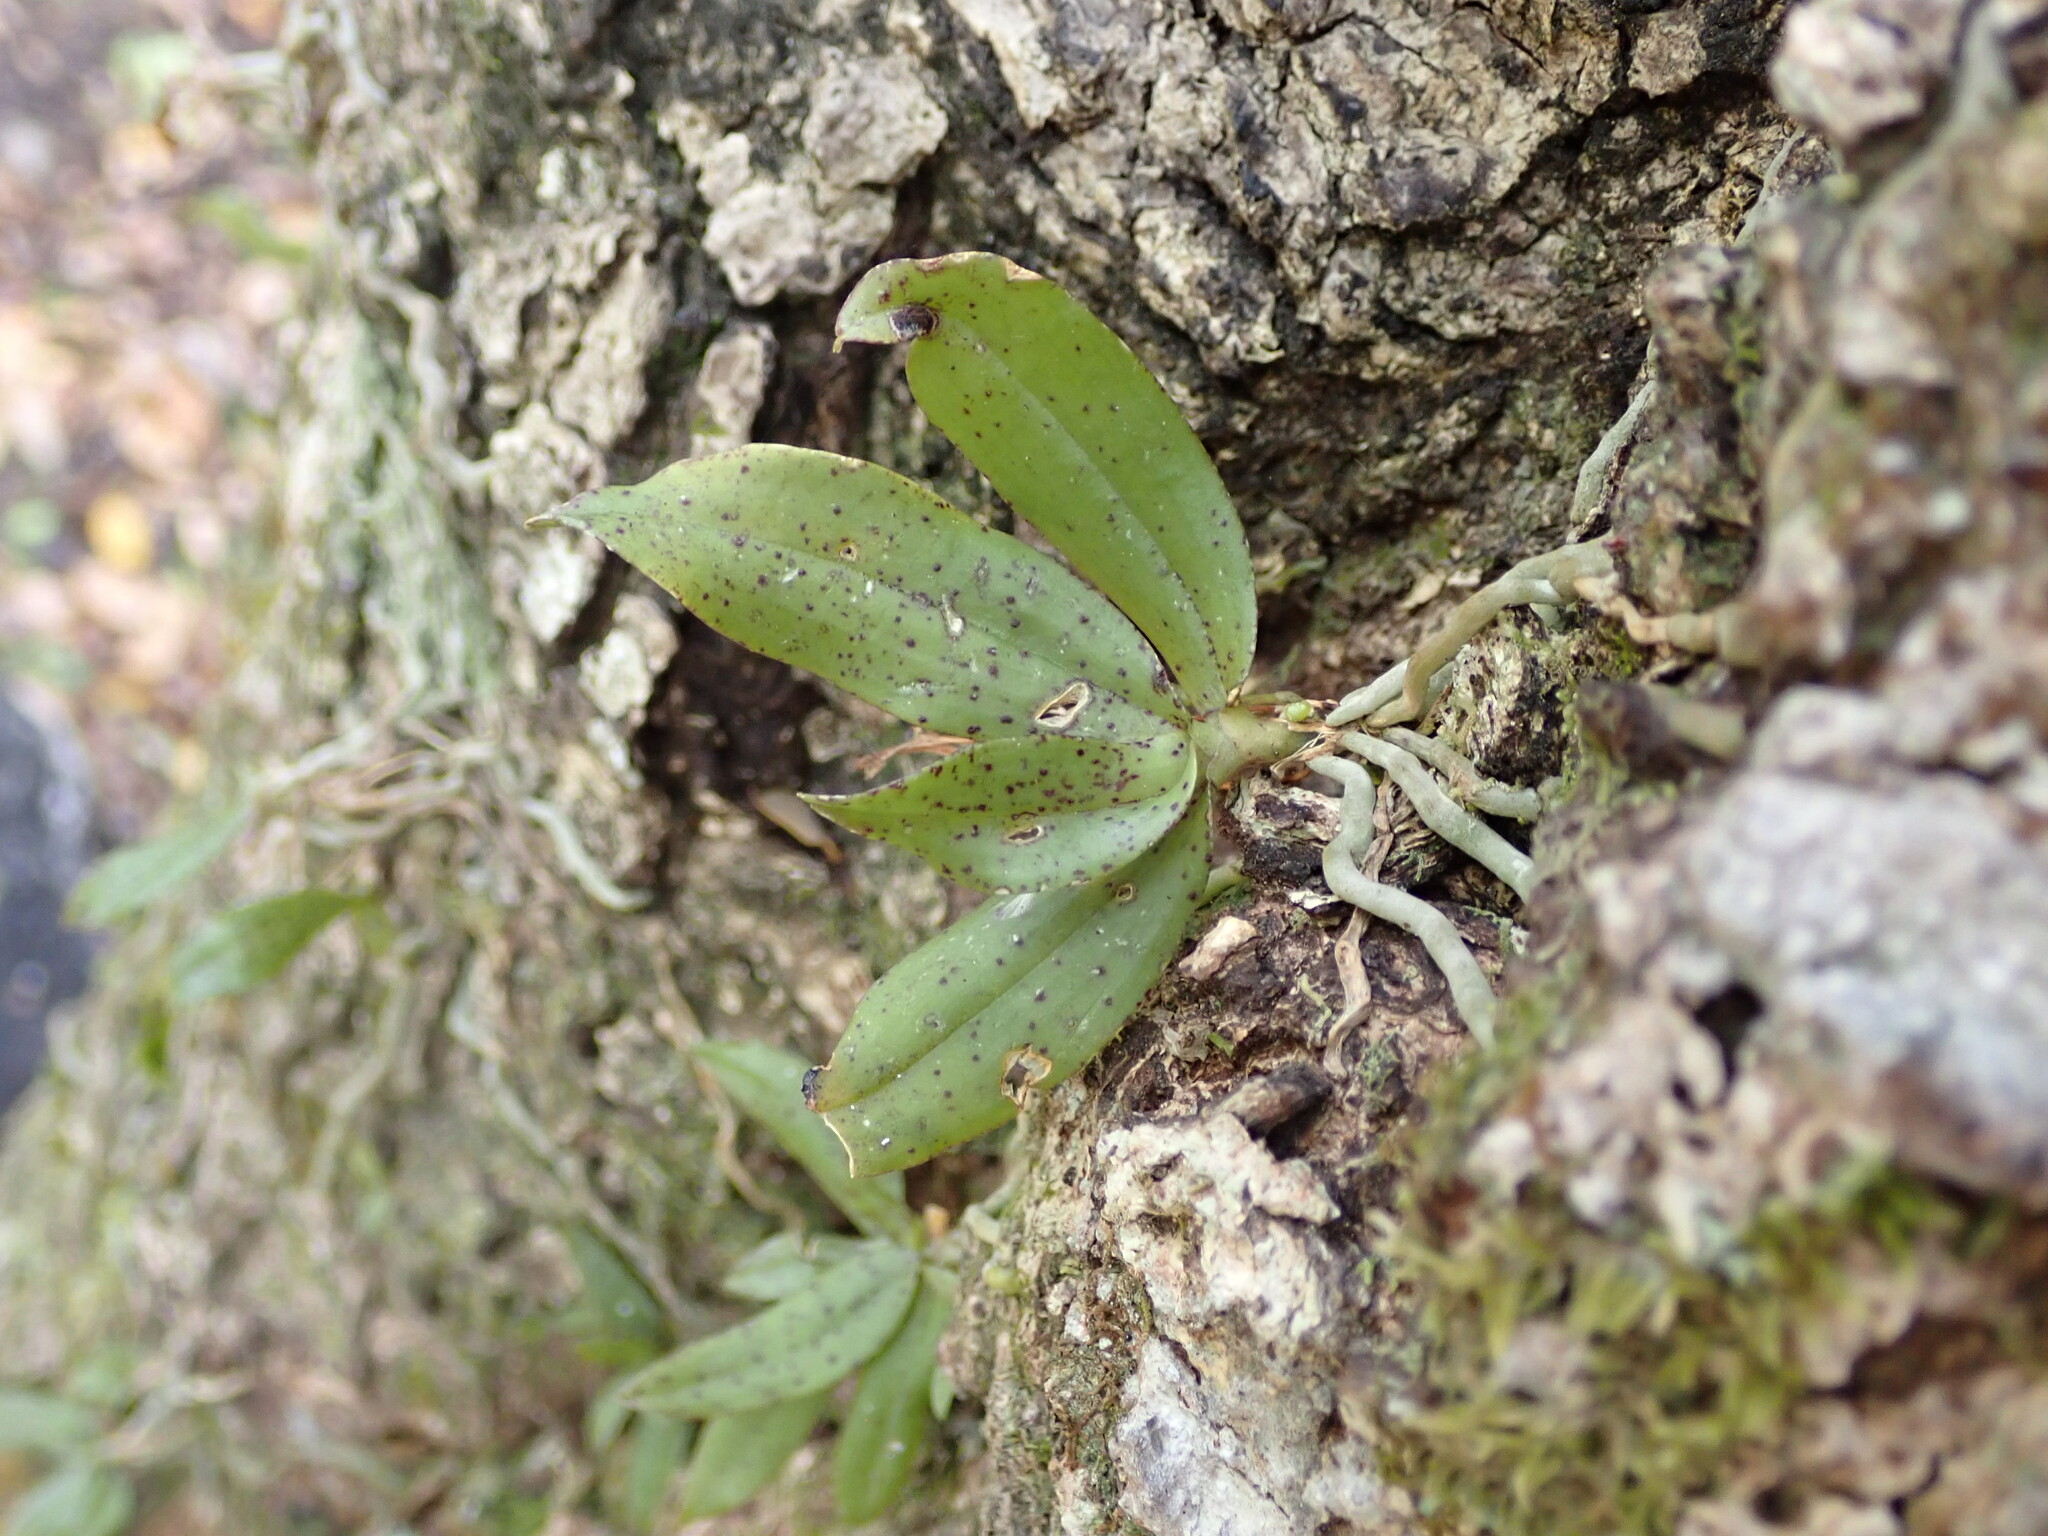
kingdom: Plantae
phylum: Tracheophyta
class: Liliopsida
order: Asparagales
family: Orchidaceae
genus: Drymoanthus
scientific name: Drymoanthus flavus
